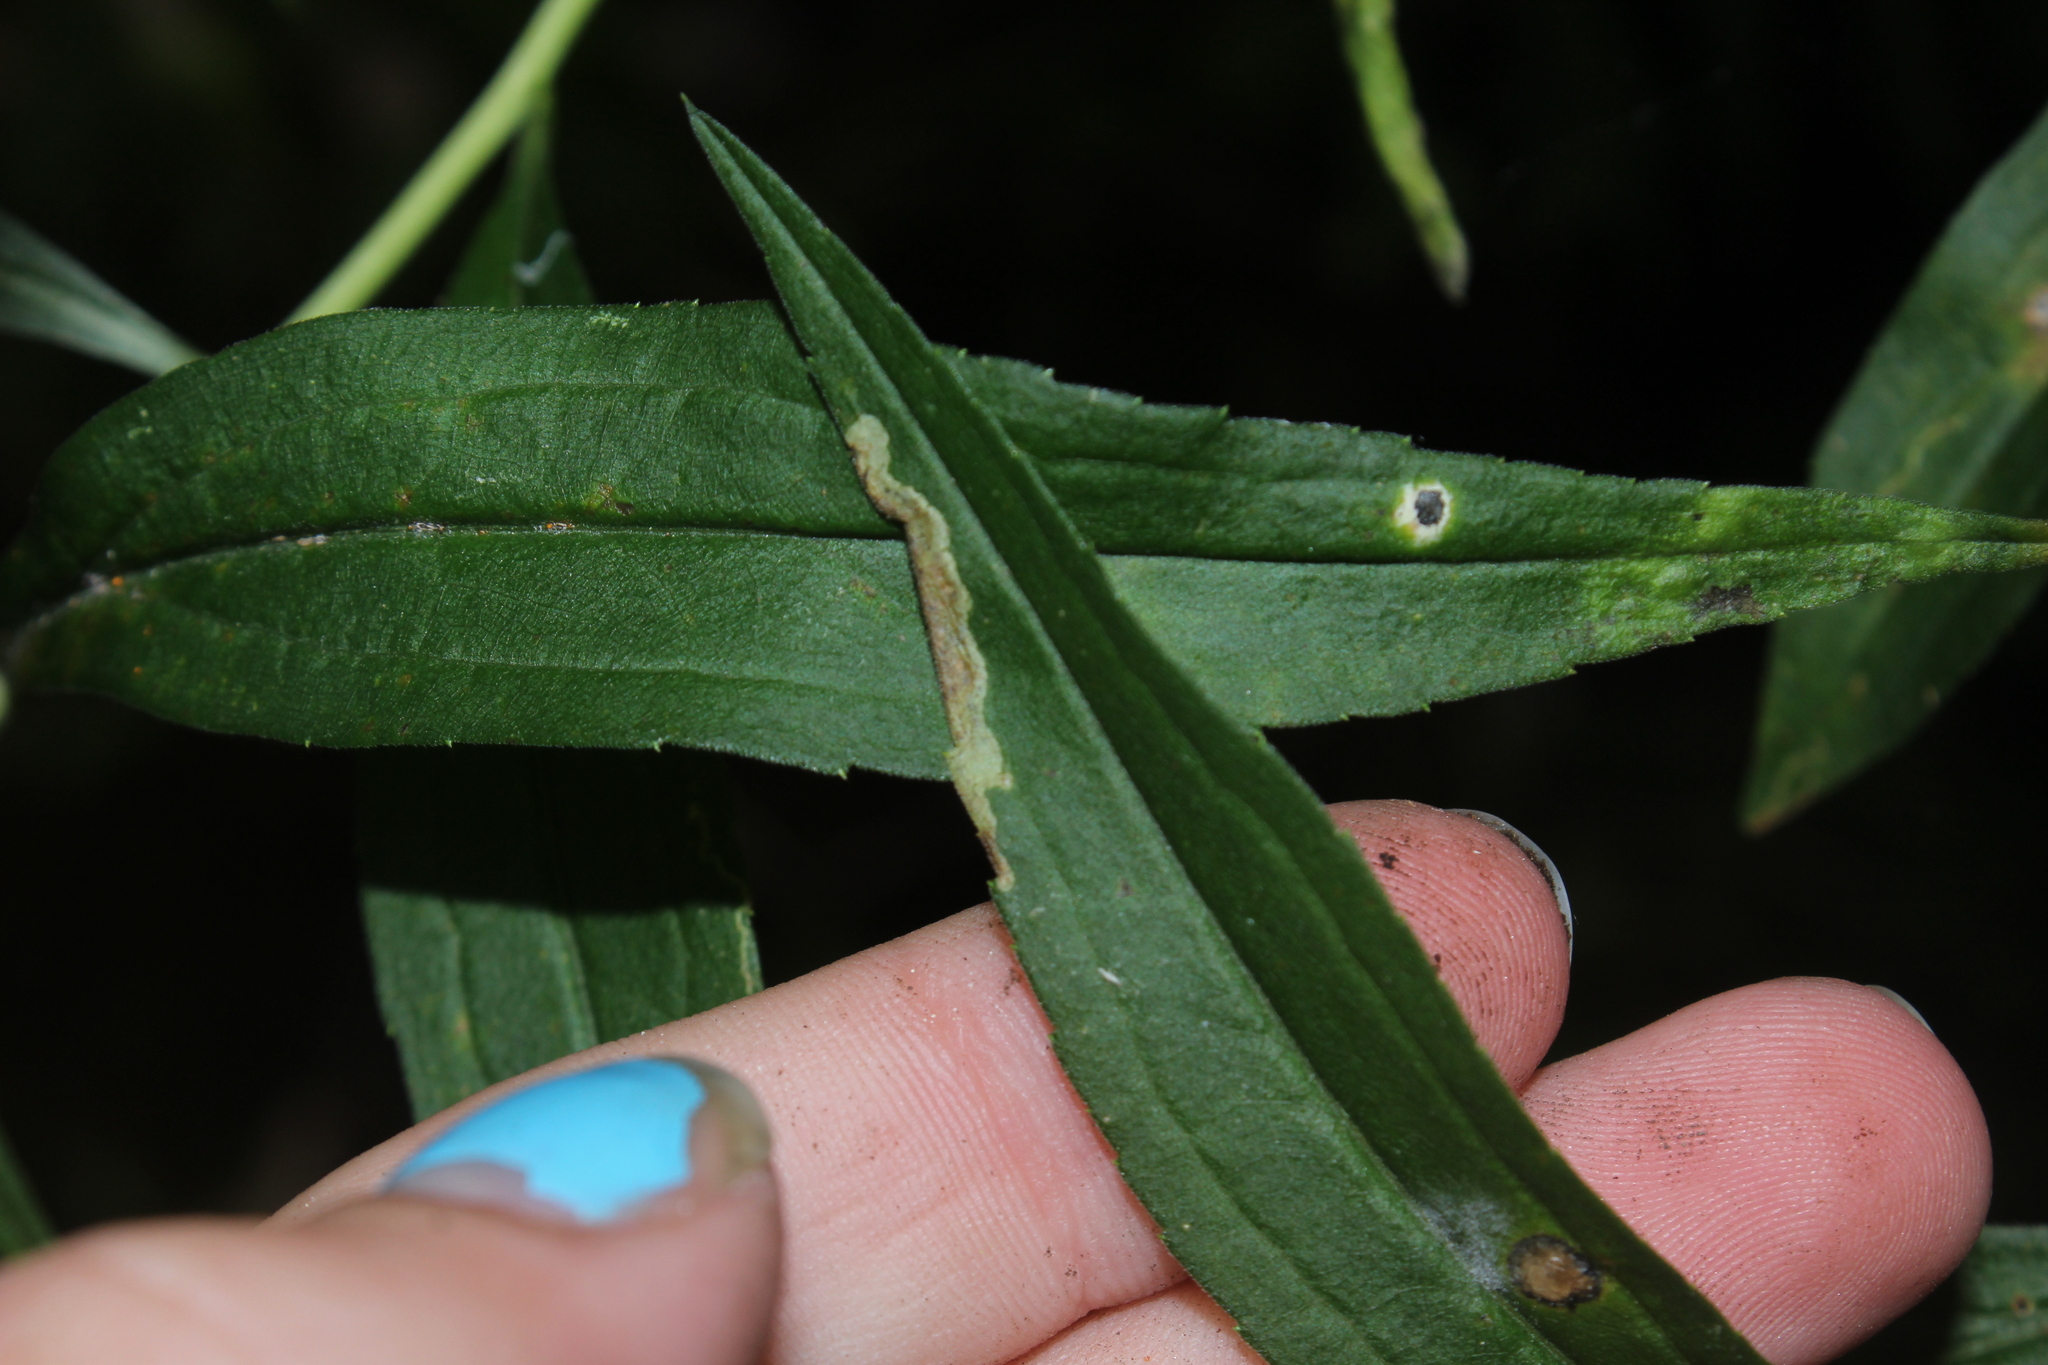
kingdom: Animalia
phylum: Arthropoda
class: Insecta
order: Diptera
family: Agromyzidae
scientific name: Agromyzidae
